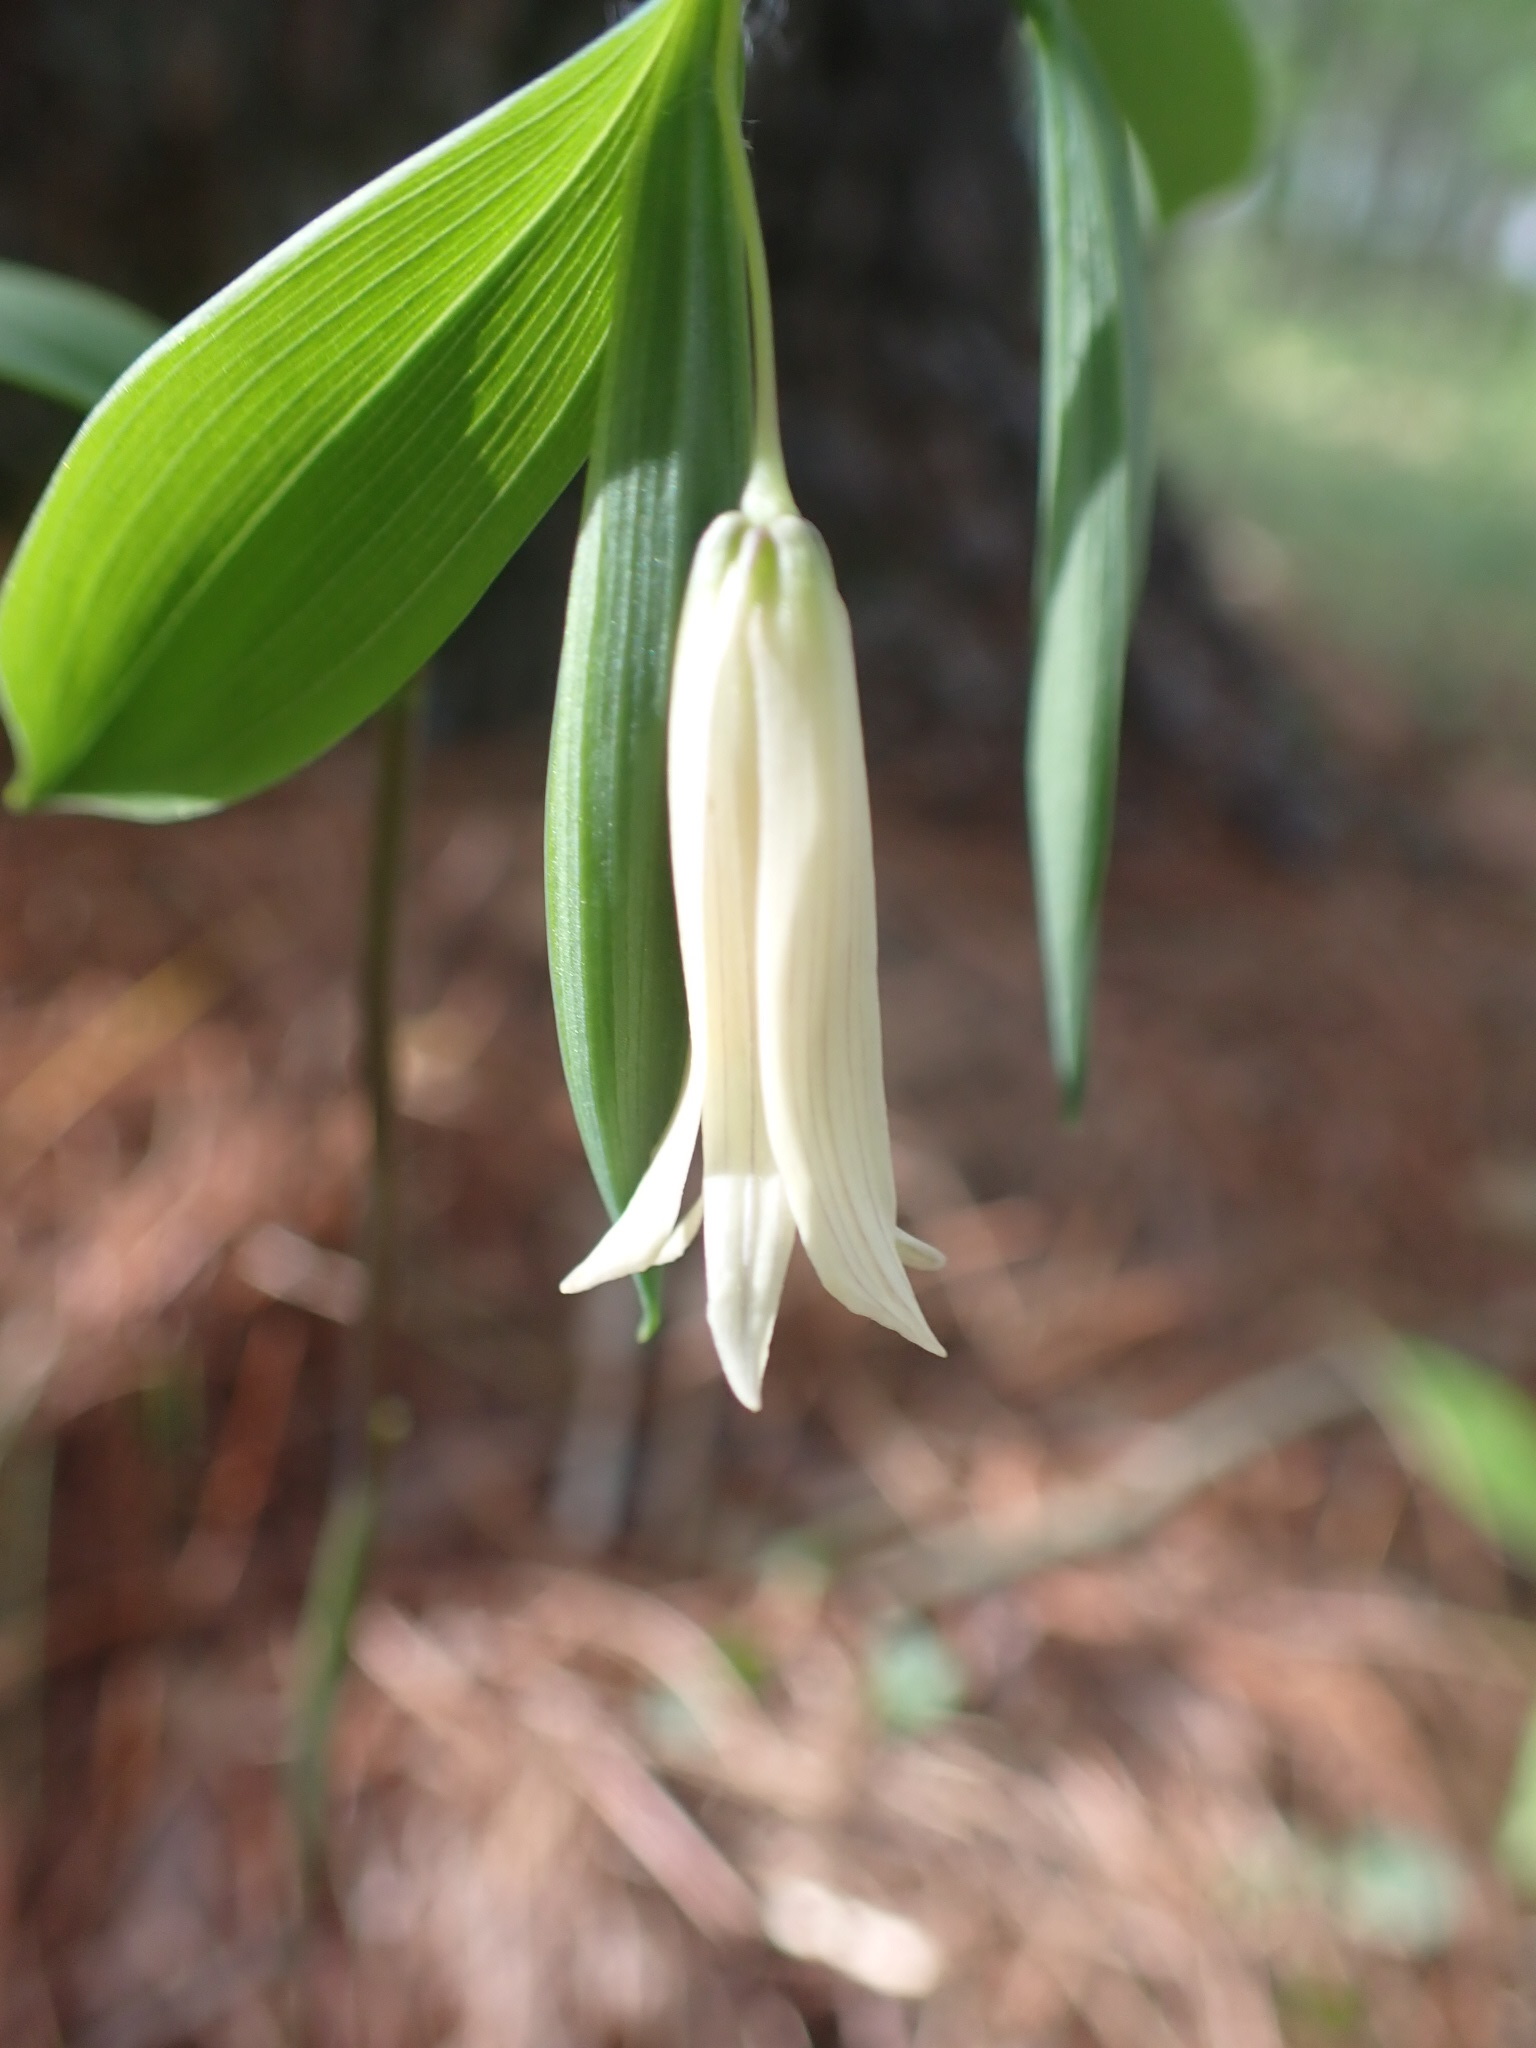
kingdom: Plantae
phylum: Tracheophyta
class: Liliopsida
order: Liliales
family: Colchicaceae
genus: Uvularia
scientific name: Uvularia sessilifolia
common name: Straw-lily
